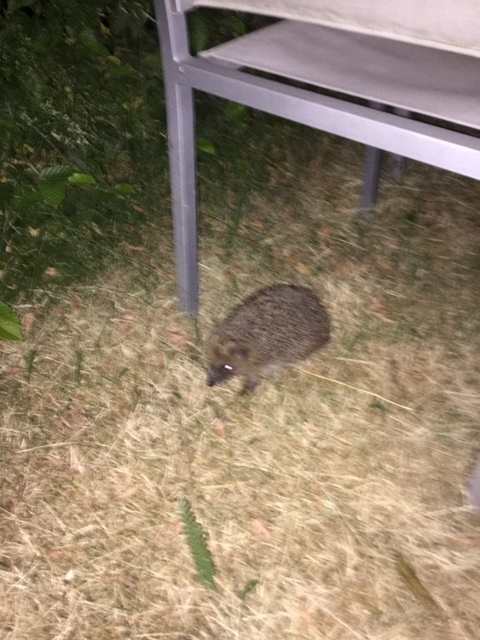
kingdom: Animalia
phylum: Chordata
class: Mammalia
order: Erinaceomorpha
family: Erinaceidae
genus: Erinaceus
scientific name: Erinaceus europaeus
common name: West european hedgehog
